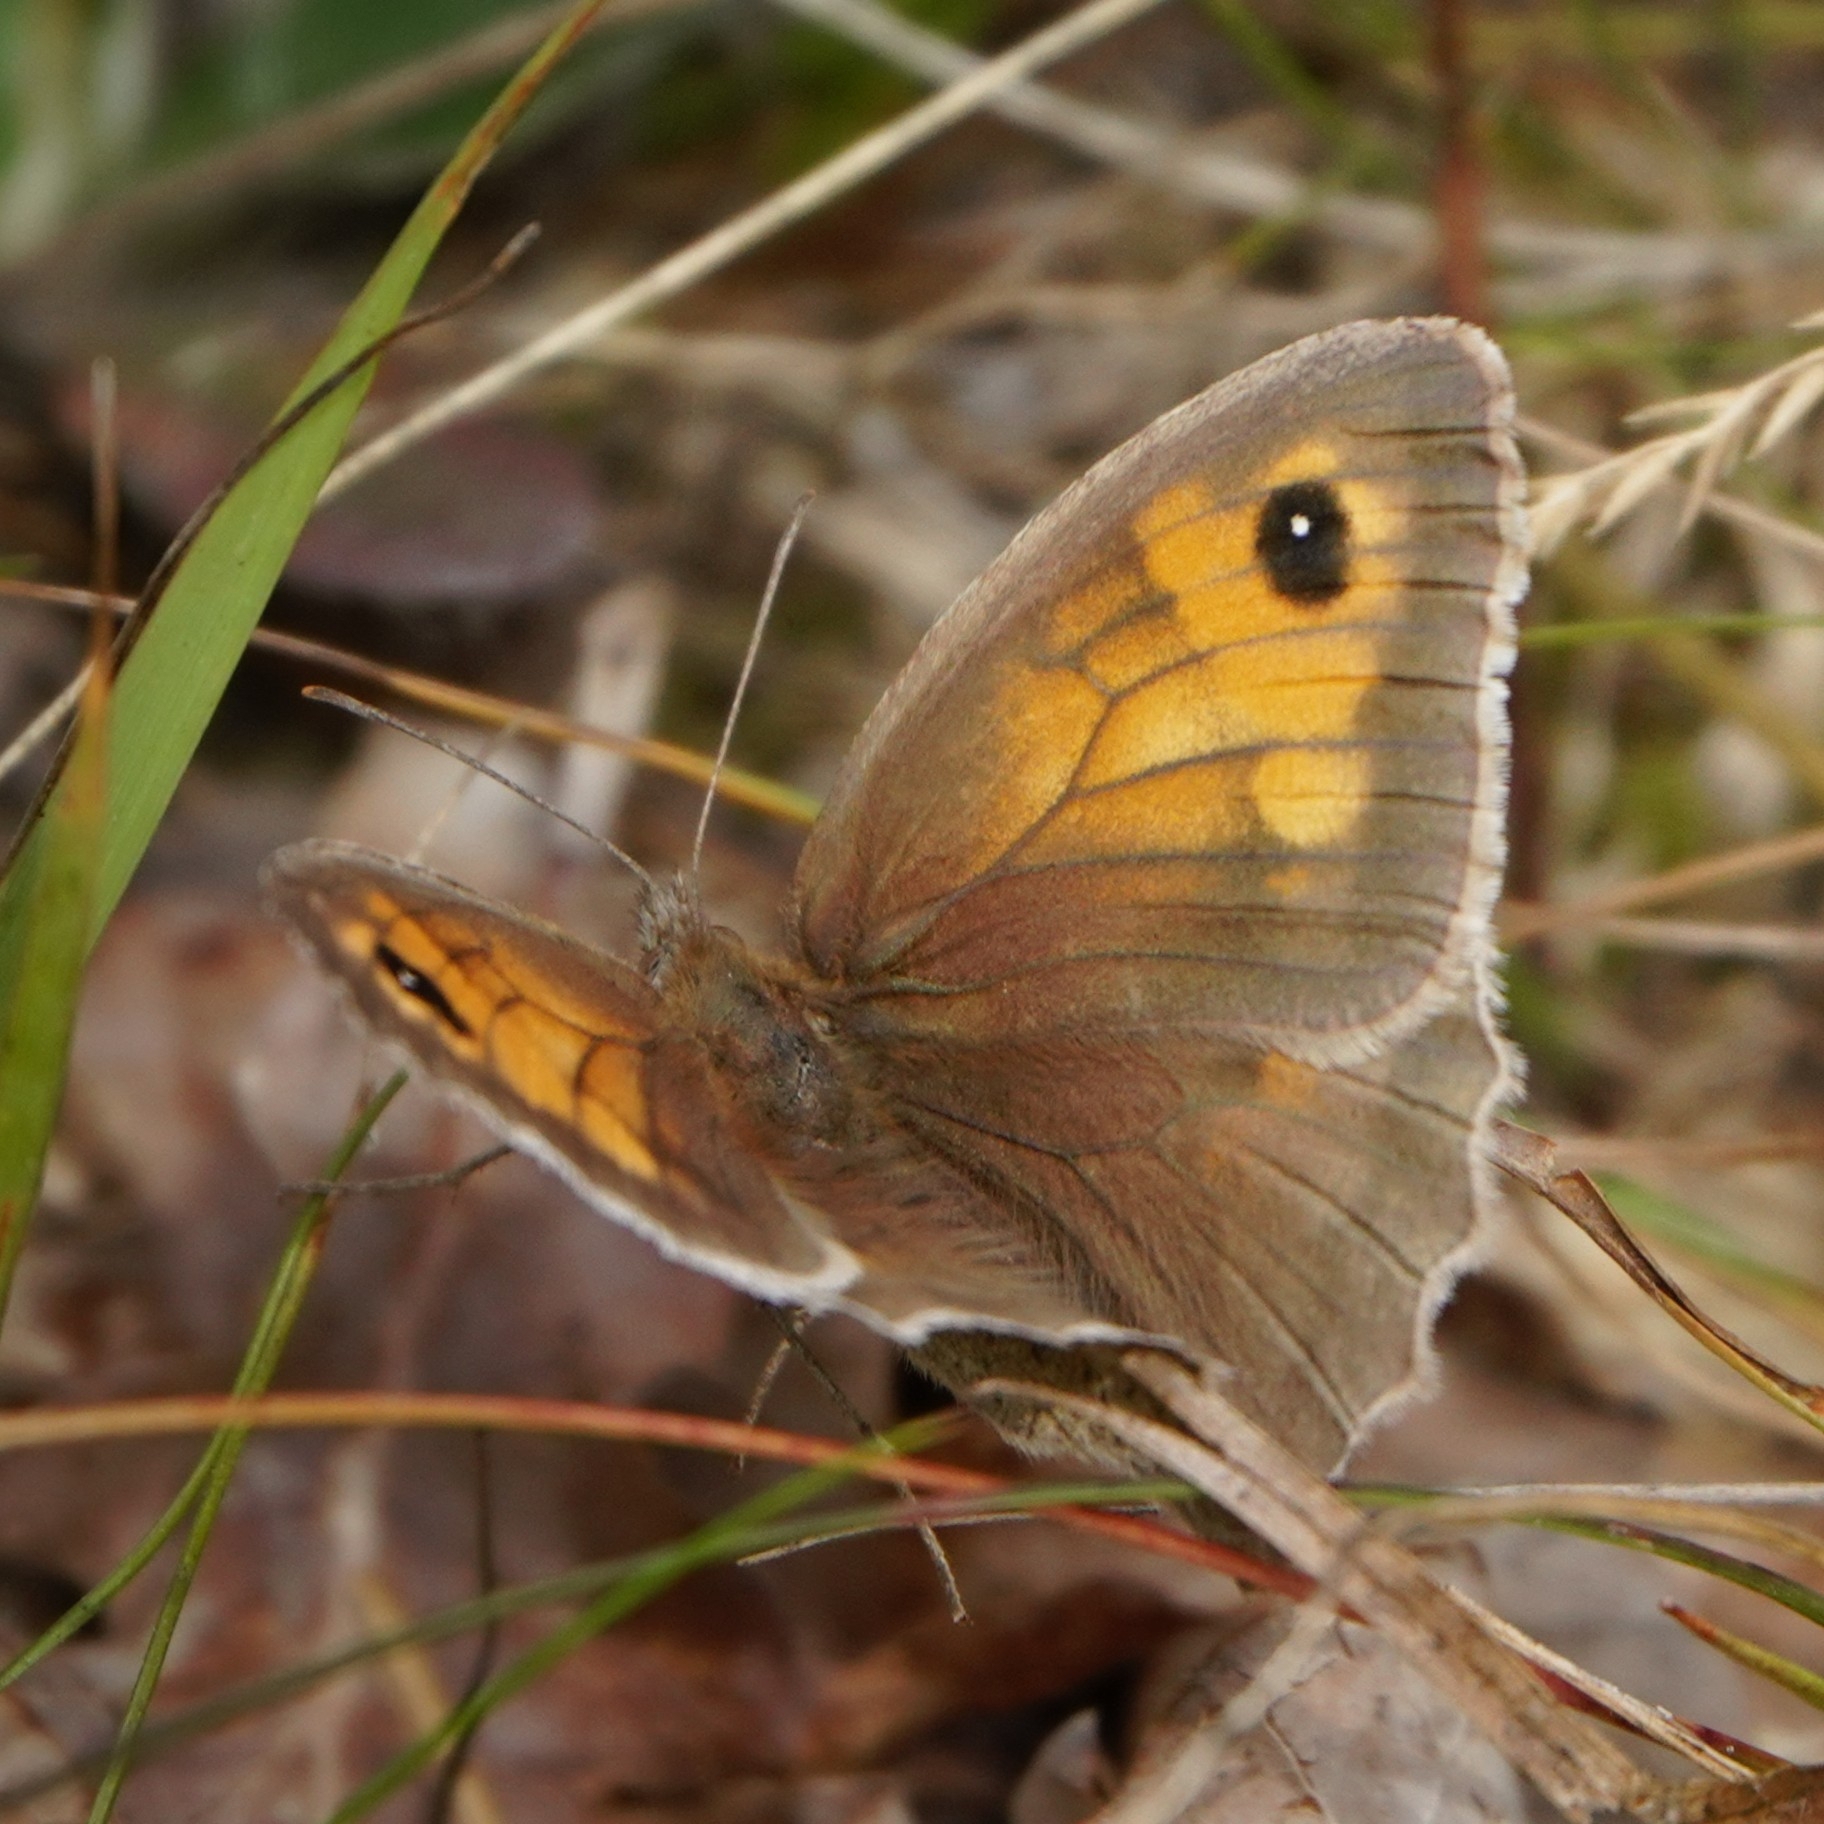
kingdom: Animalia
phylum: Arthropoda
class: Insecta
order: Lepidoptera
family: Nymphalidae
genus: Maniola
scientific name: Maniola jurtina
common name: Meadow brown
